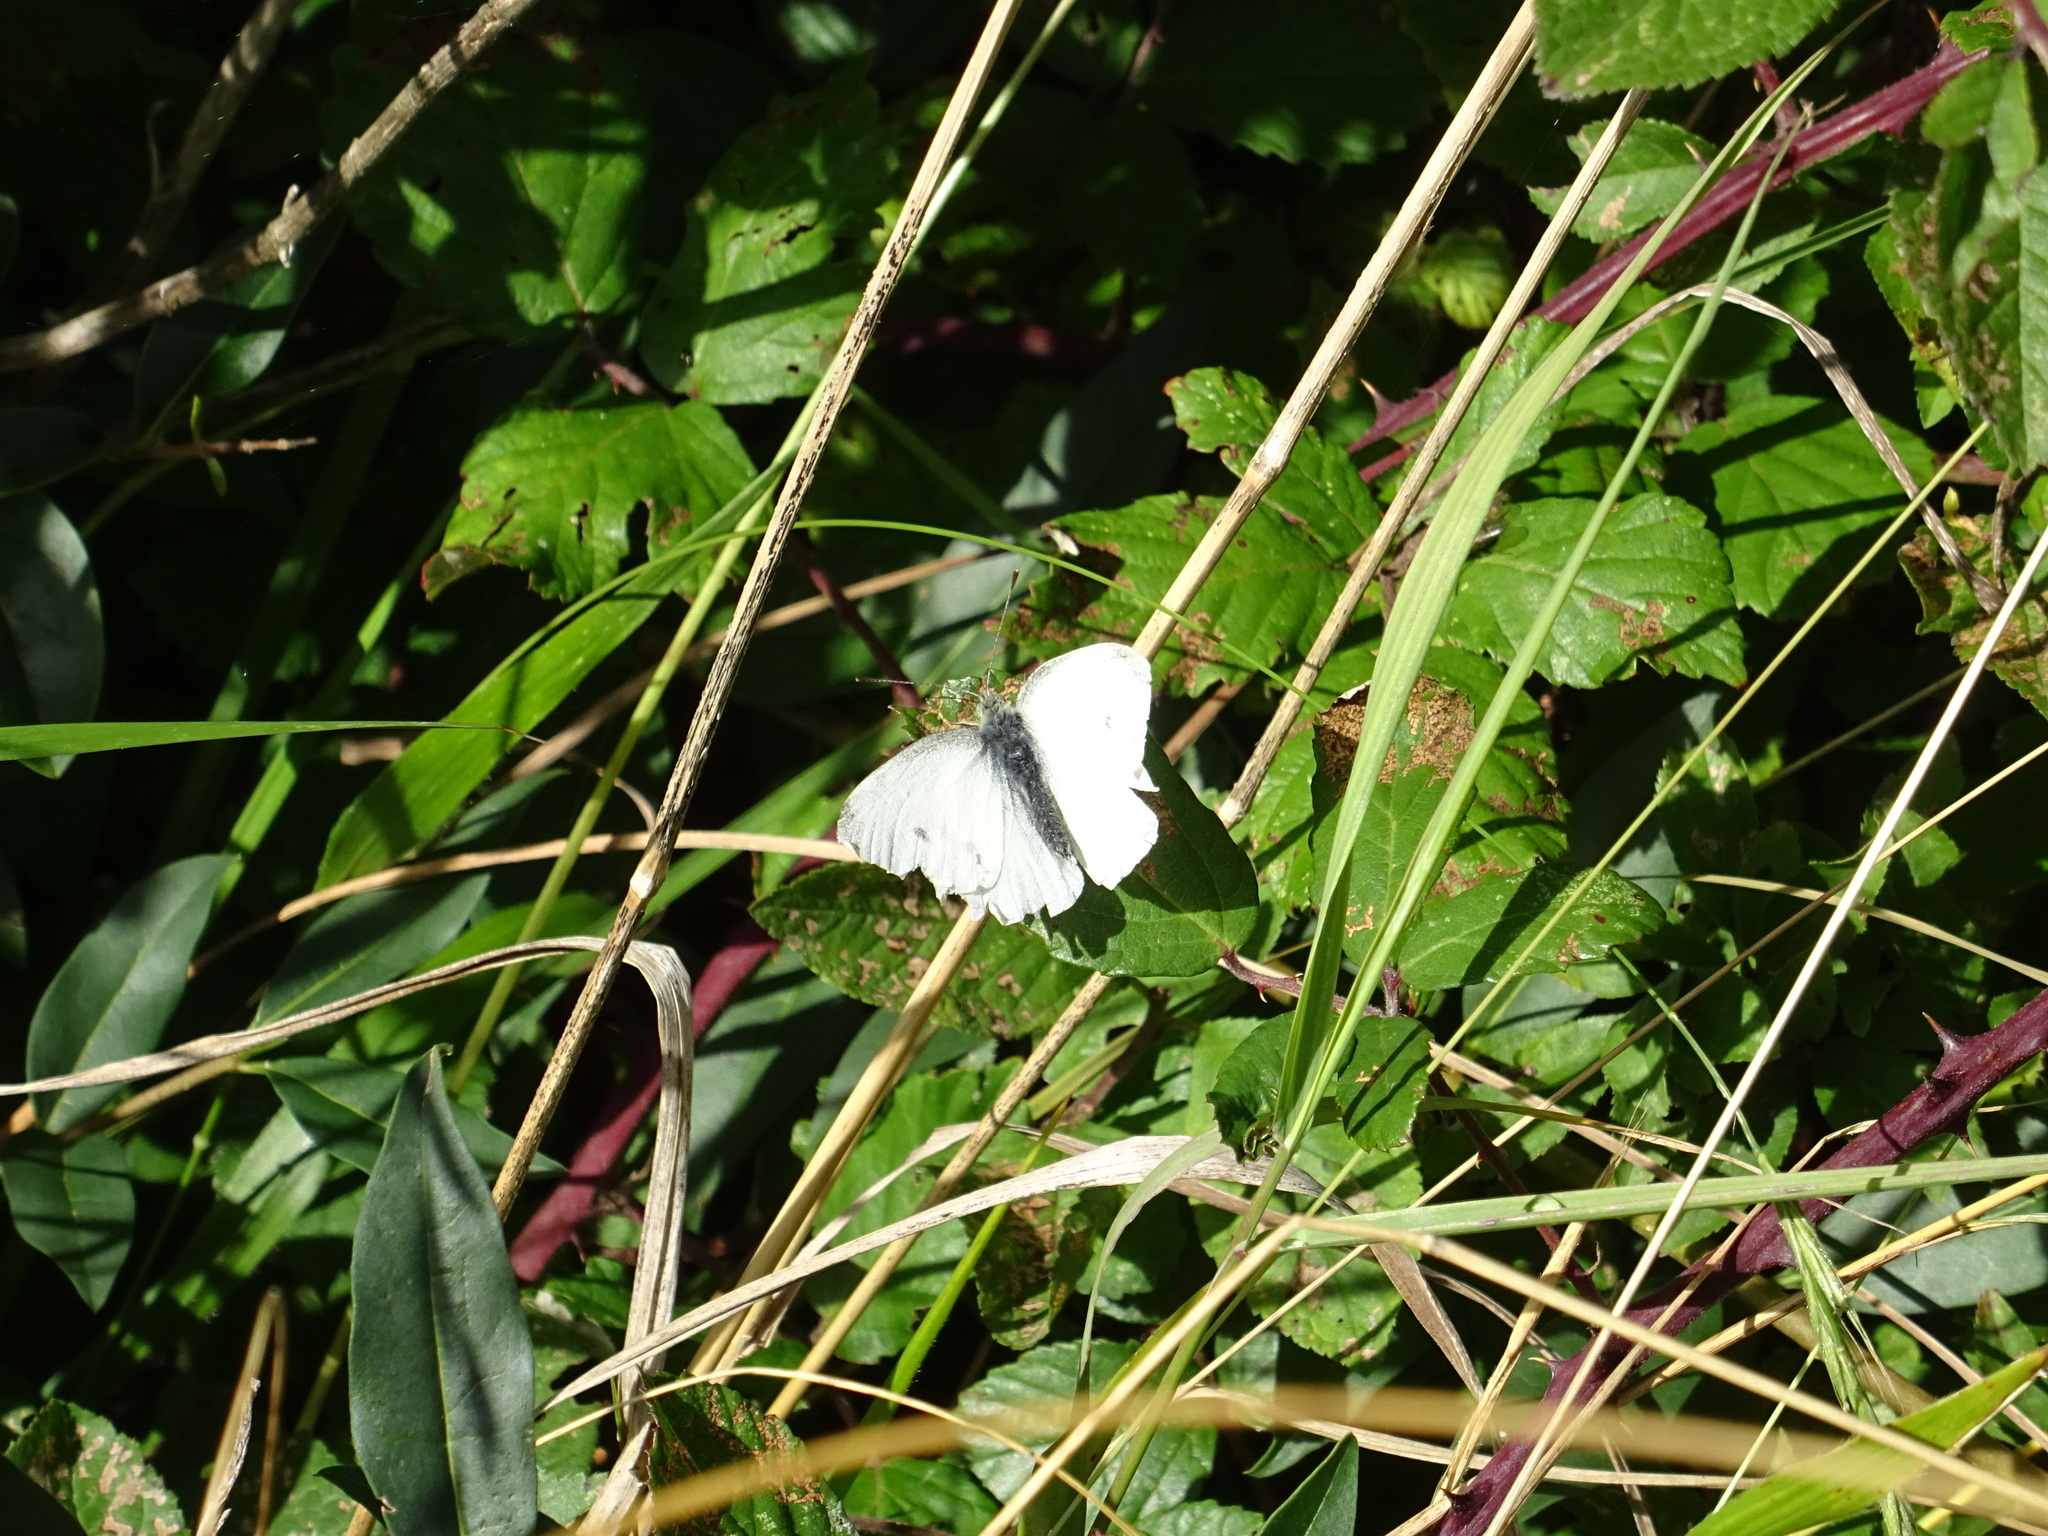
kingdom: Animalia
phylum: Arthropoda
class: Insecta
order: Lepidoptera
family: Pieridae
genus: Pieris
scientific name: Pieris rapae
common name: Small white
